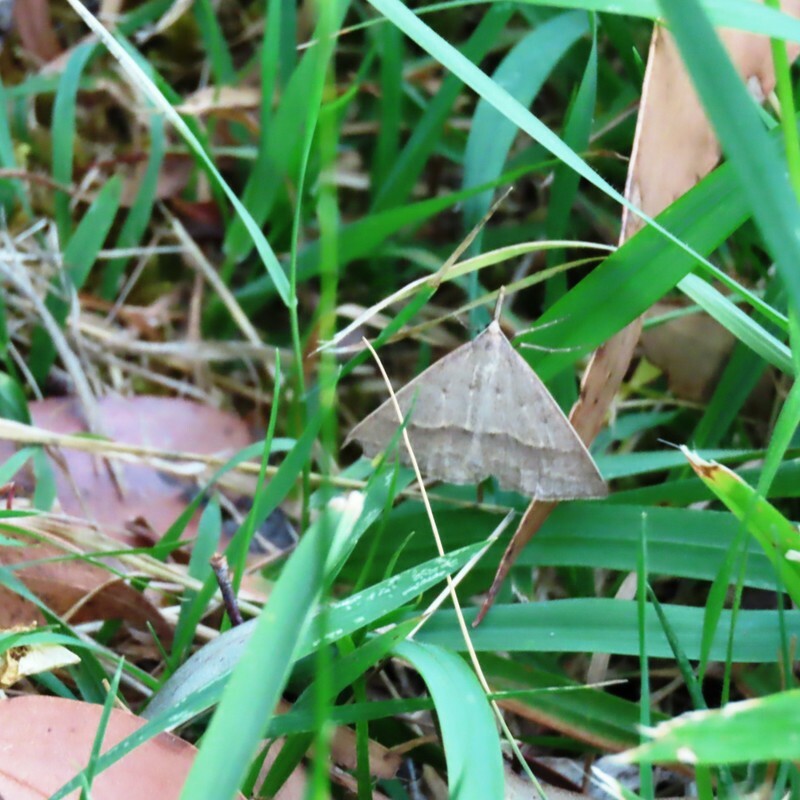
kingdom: Animalia
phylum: Arthropoda
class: Insecta
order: Lepidoptera
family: Geometridae
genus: Epidesmia
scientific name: Epidesmia hypenaria
